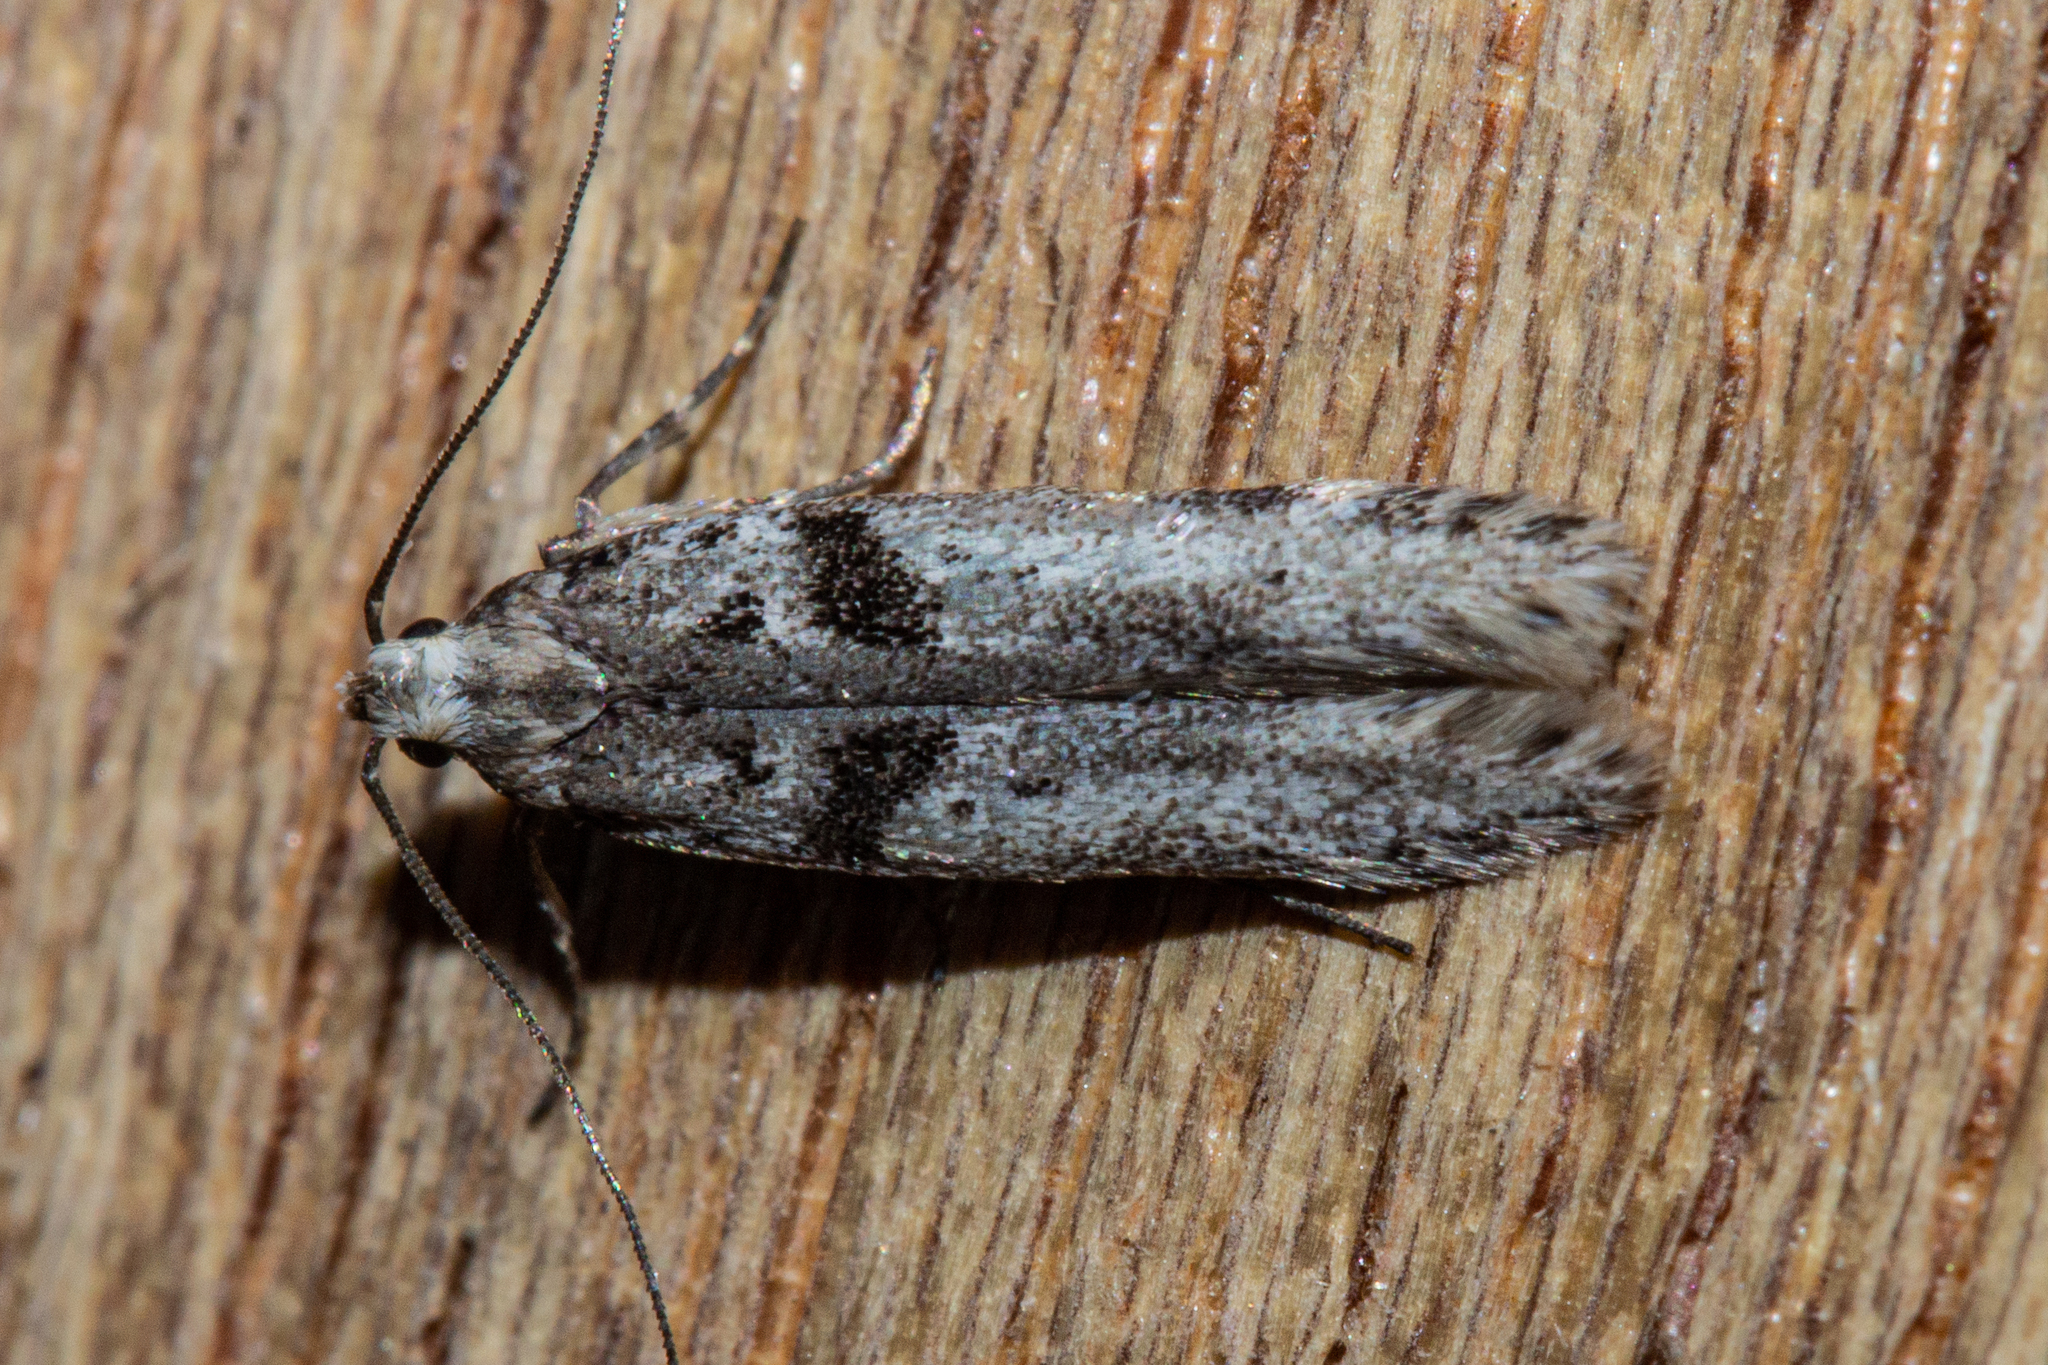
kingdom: Animalia
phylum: Arthropoda
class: Insecta
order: Lepidoptera
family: Gelechiidae
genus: Aristotelia
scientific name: Aristotelia paradesma
